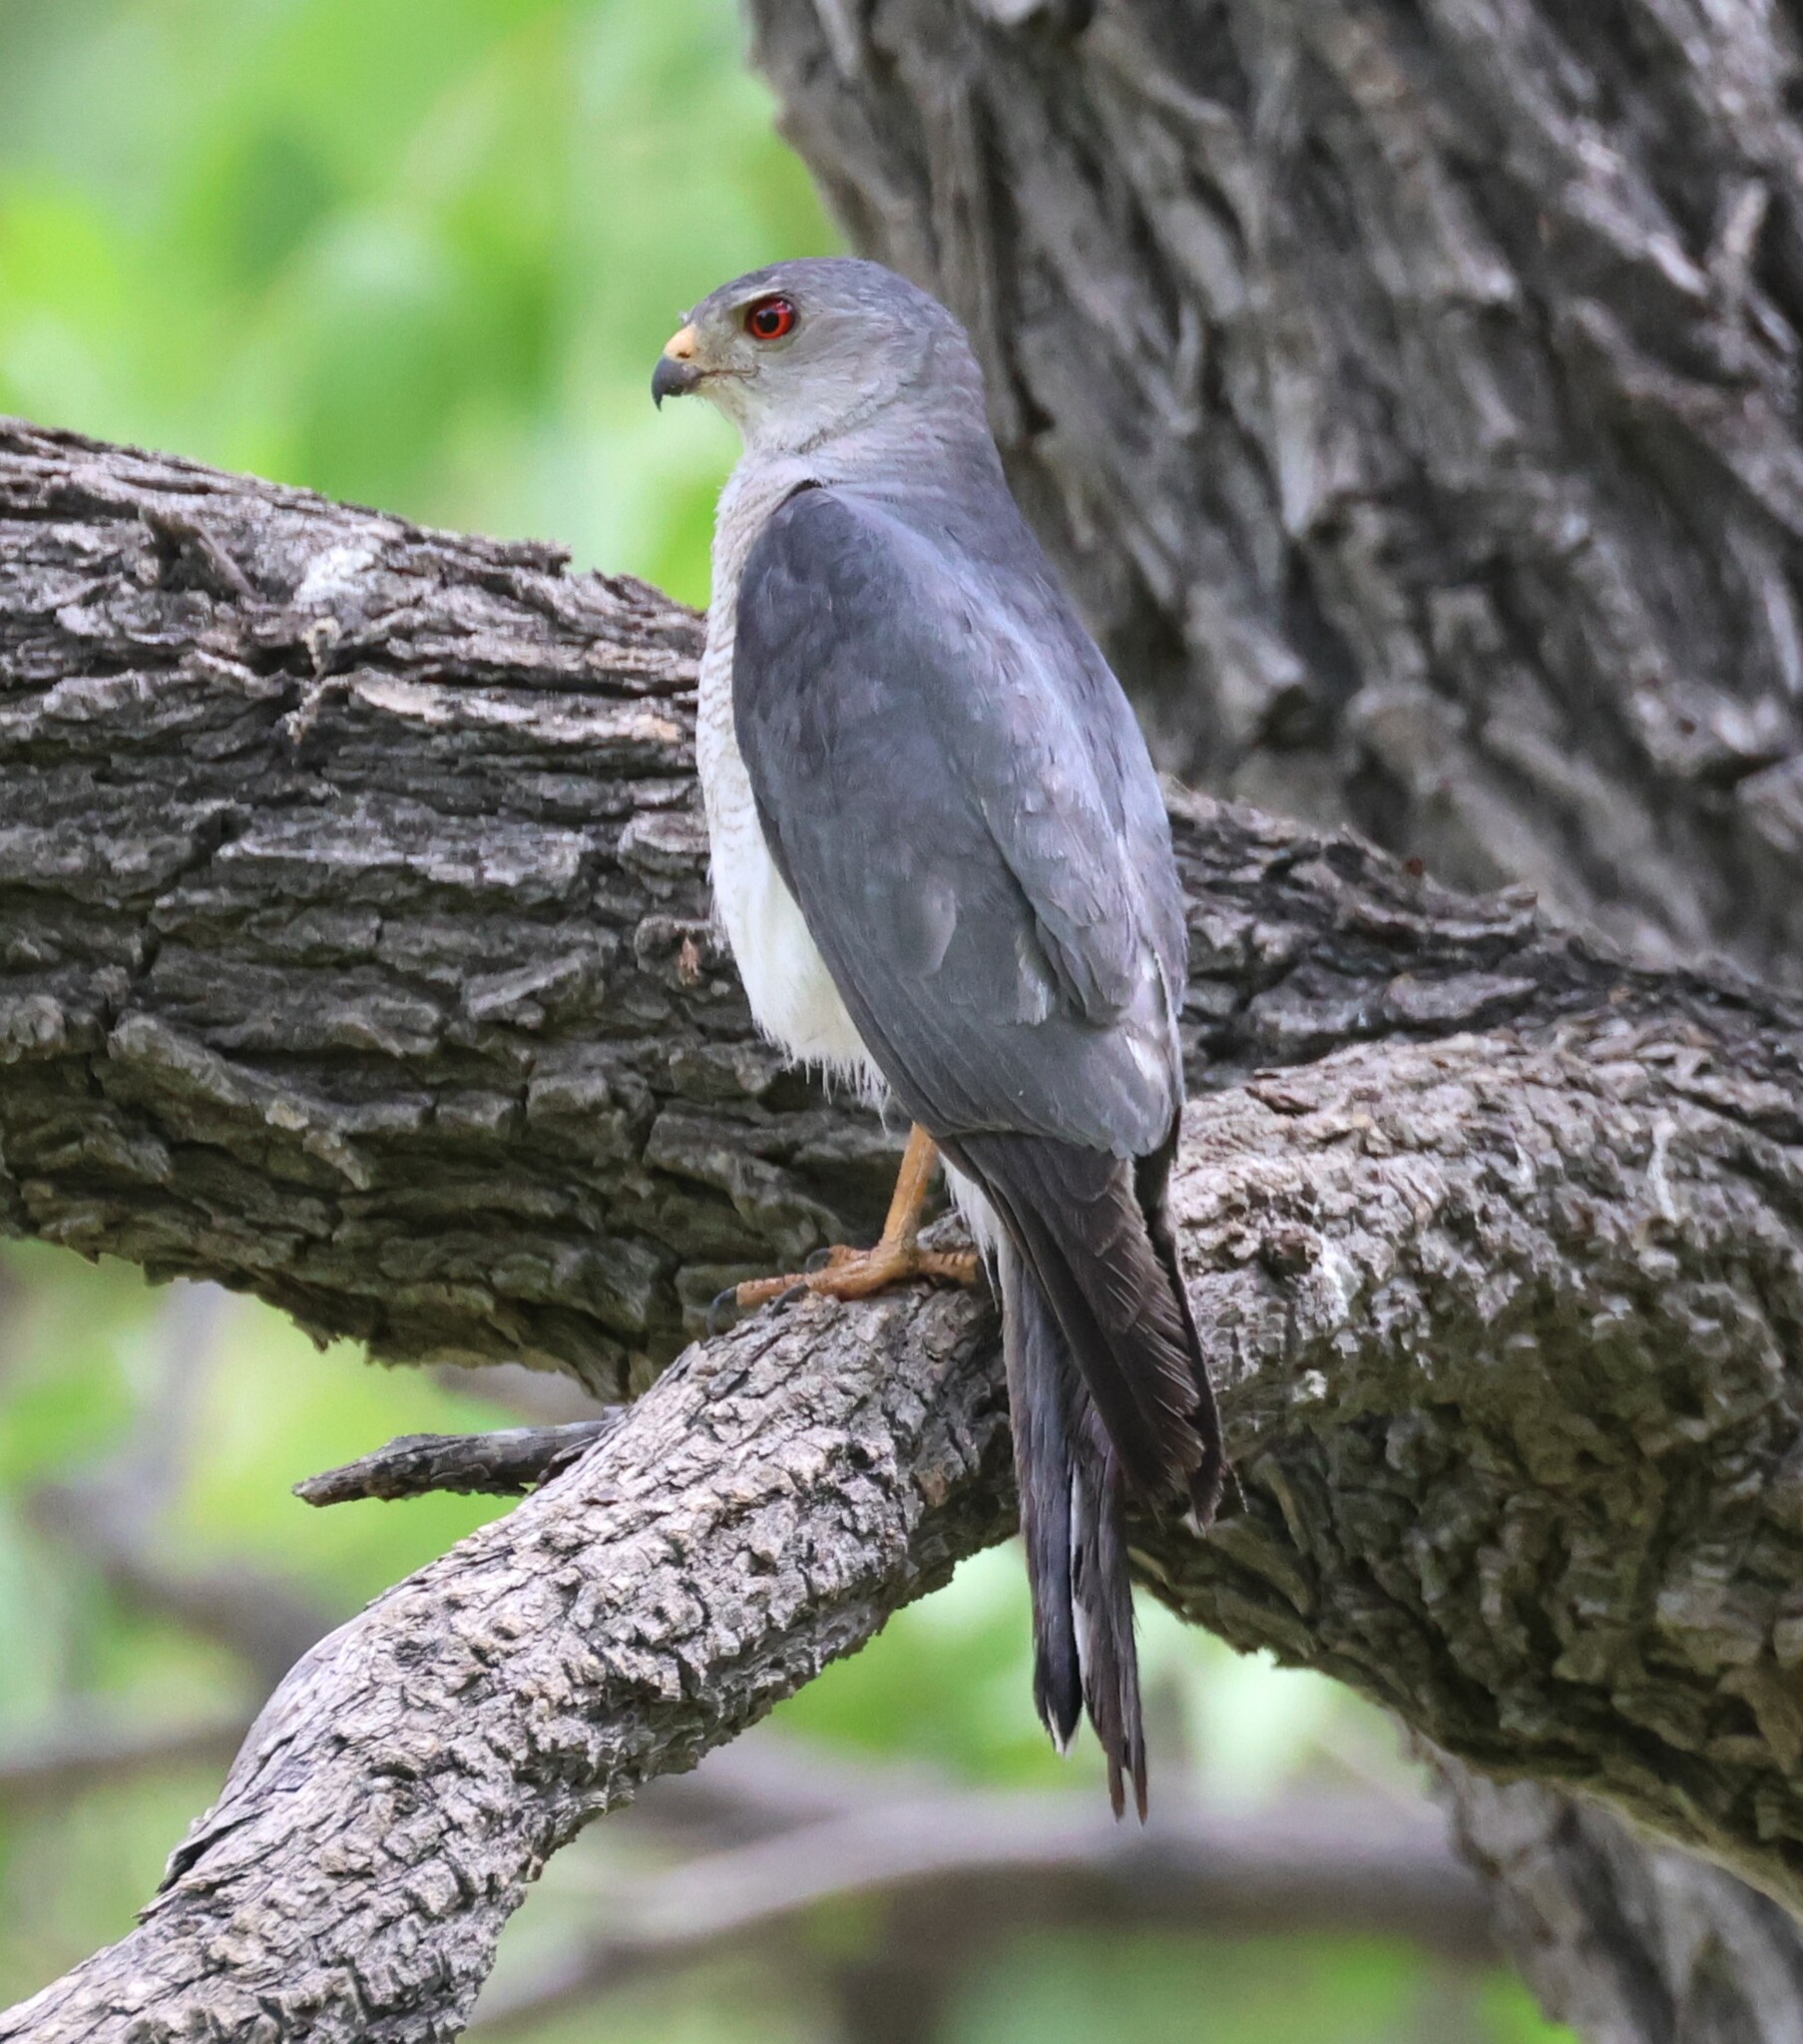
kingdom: Animalia
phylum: Chordata
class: Aves
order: Accipitriformes
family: Accipitridae
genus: Accipiter
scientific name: Accipiter badius
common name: Shikra
